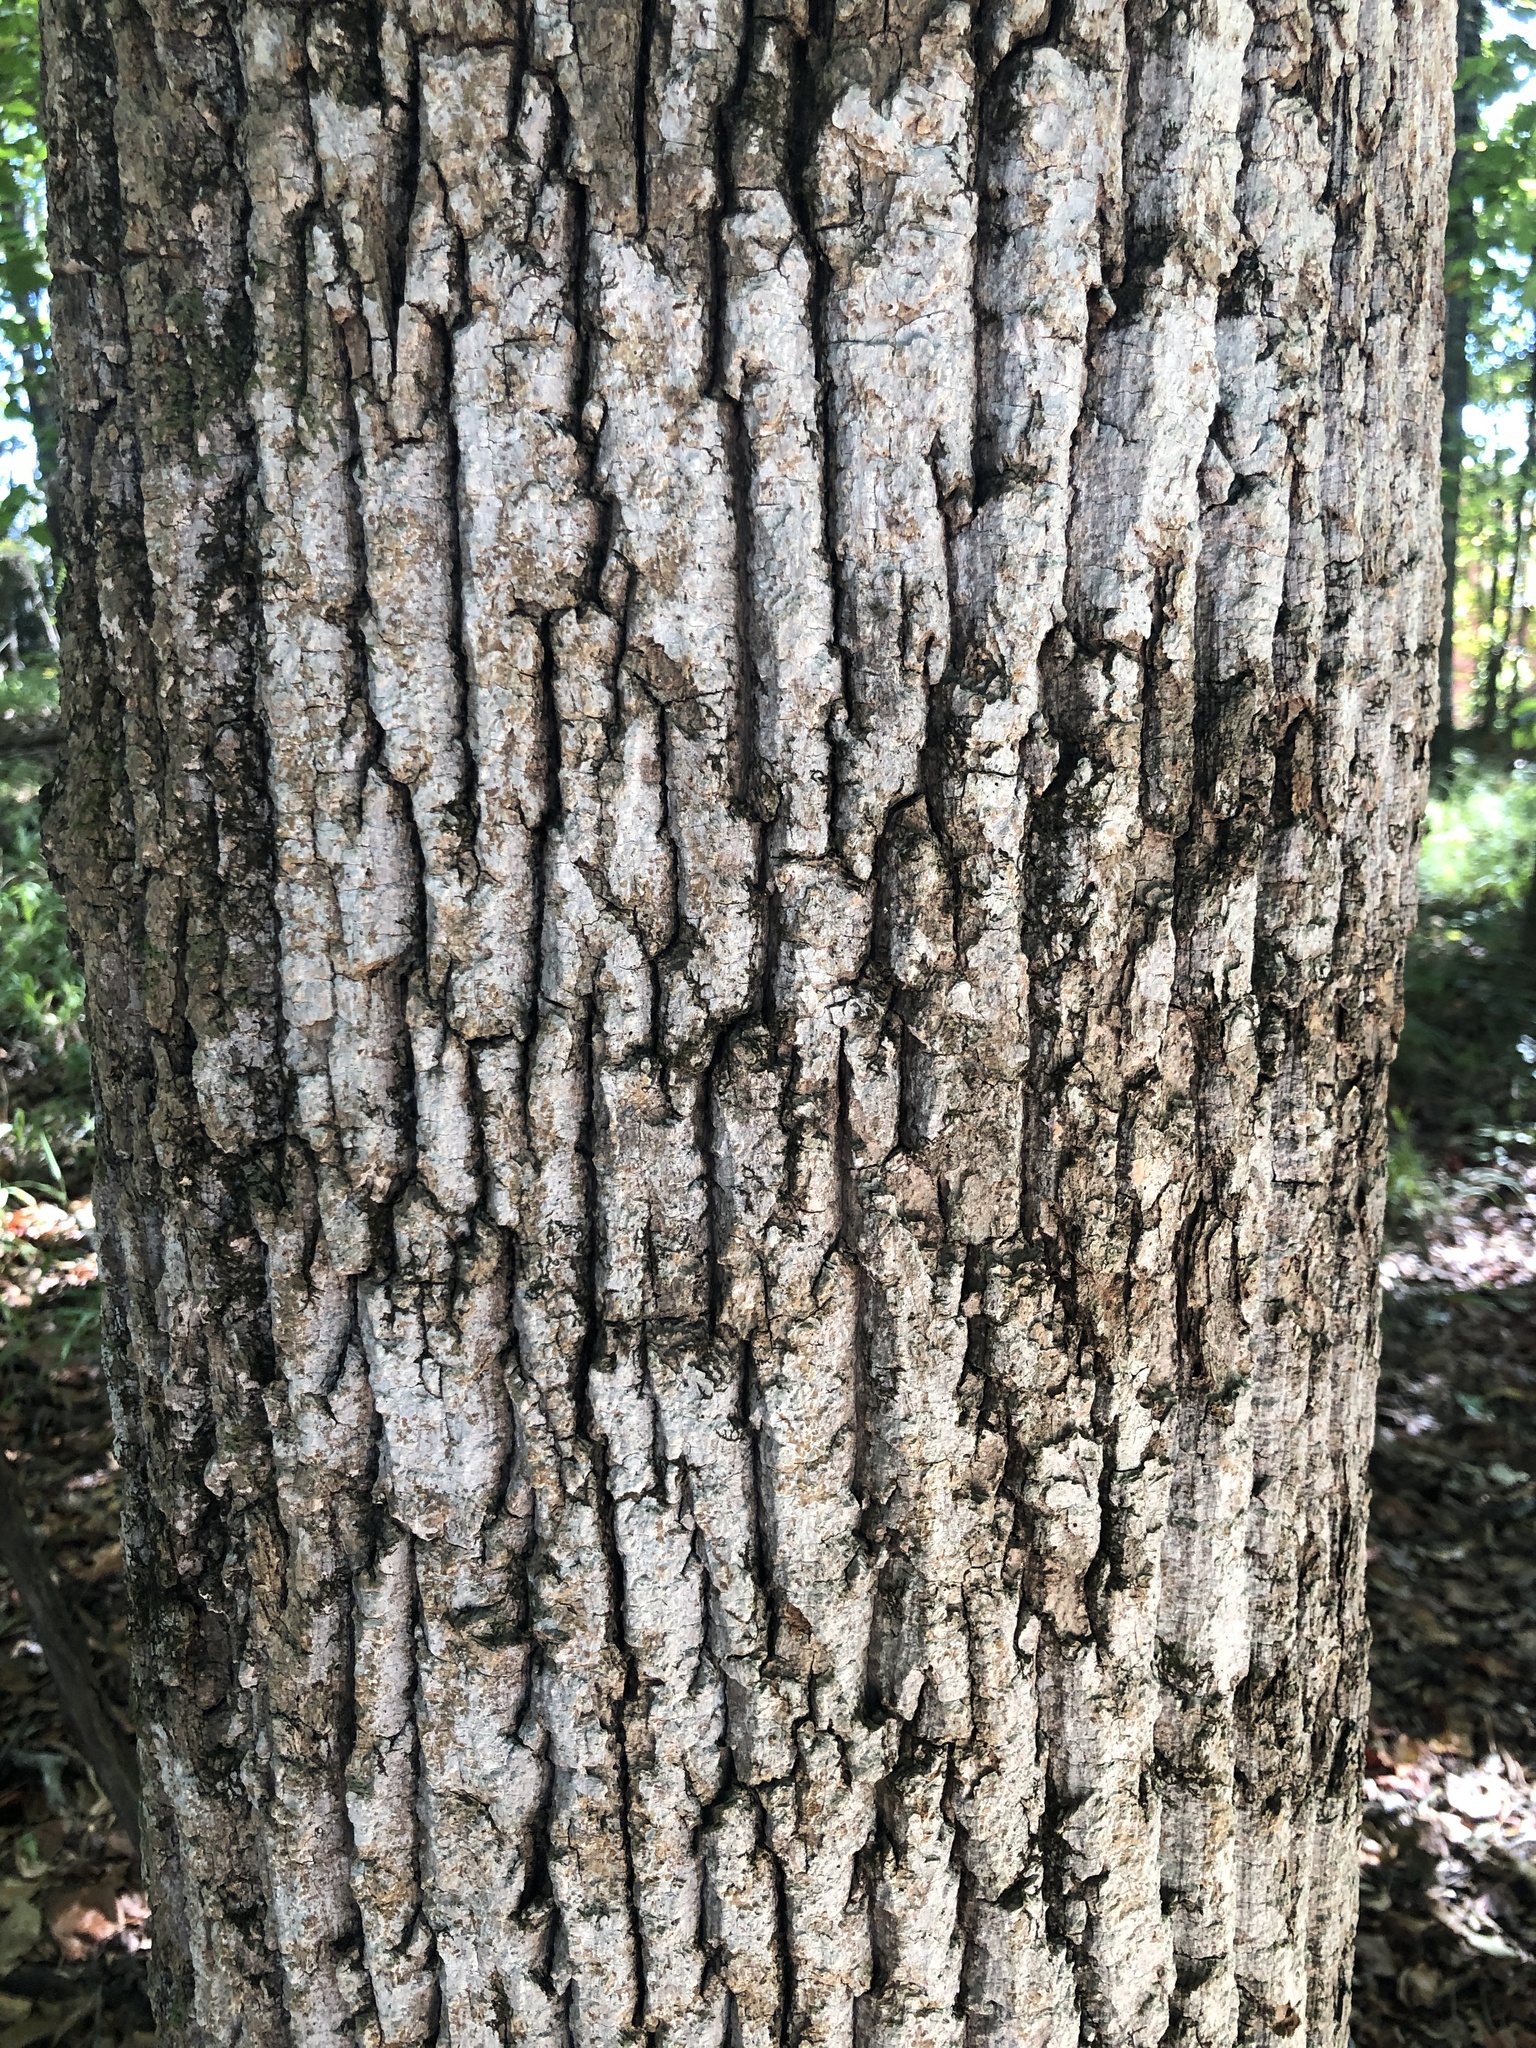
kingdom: Plantae
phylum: Tracheophyta
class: Magnoliopsida
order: Magnoliales
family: Magnoliaceae
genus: Liriodendron
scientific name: Liriodendron tulipifera
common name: Tulip tree
